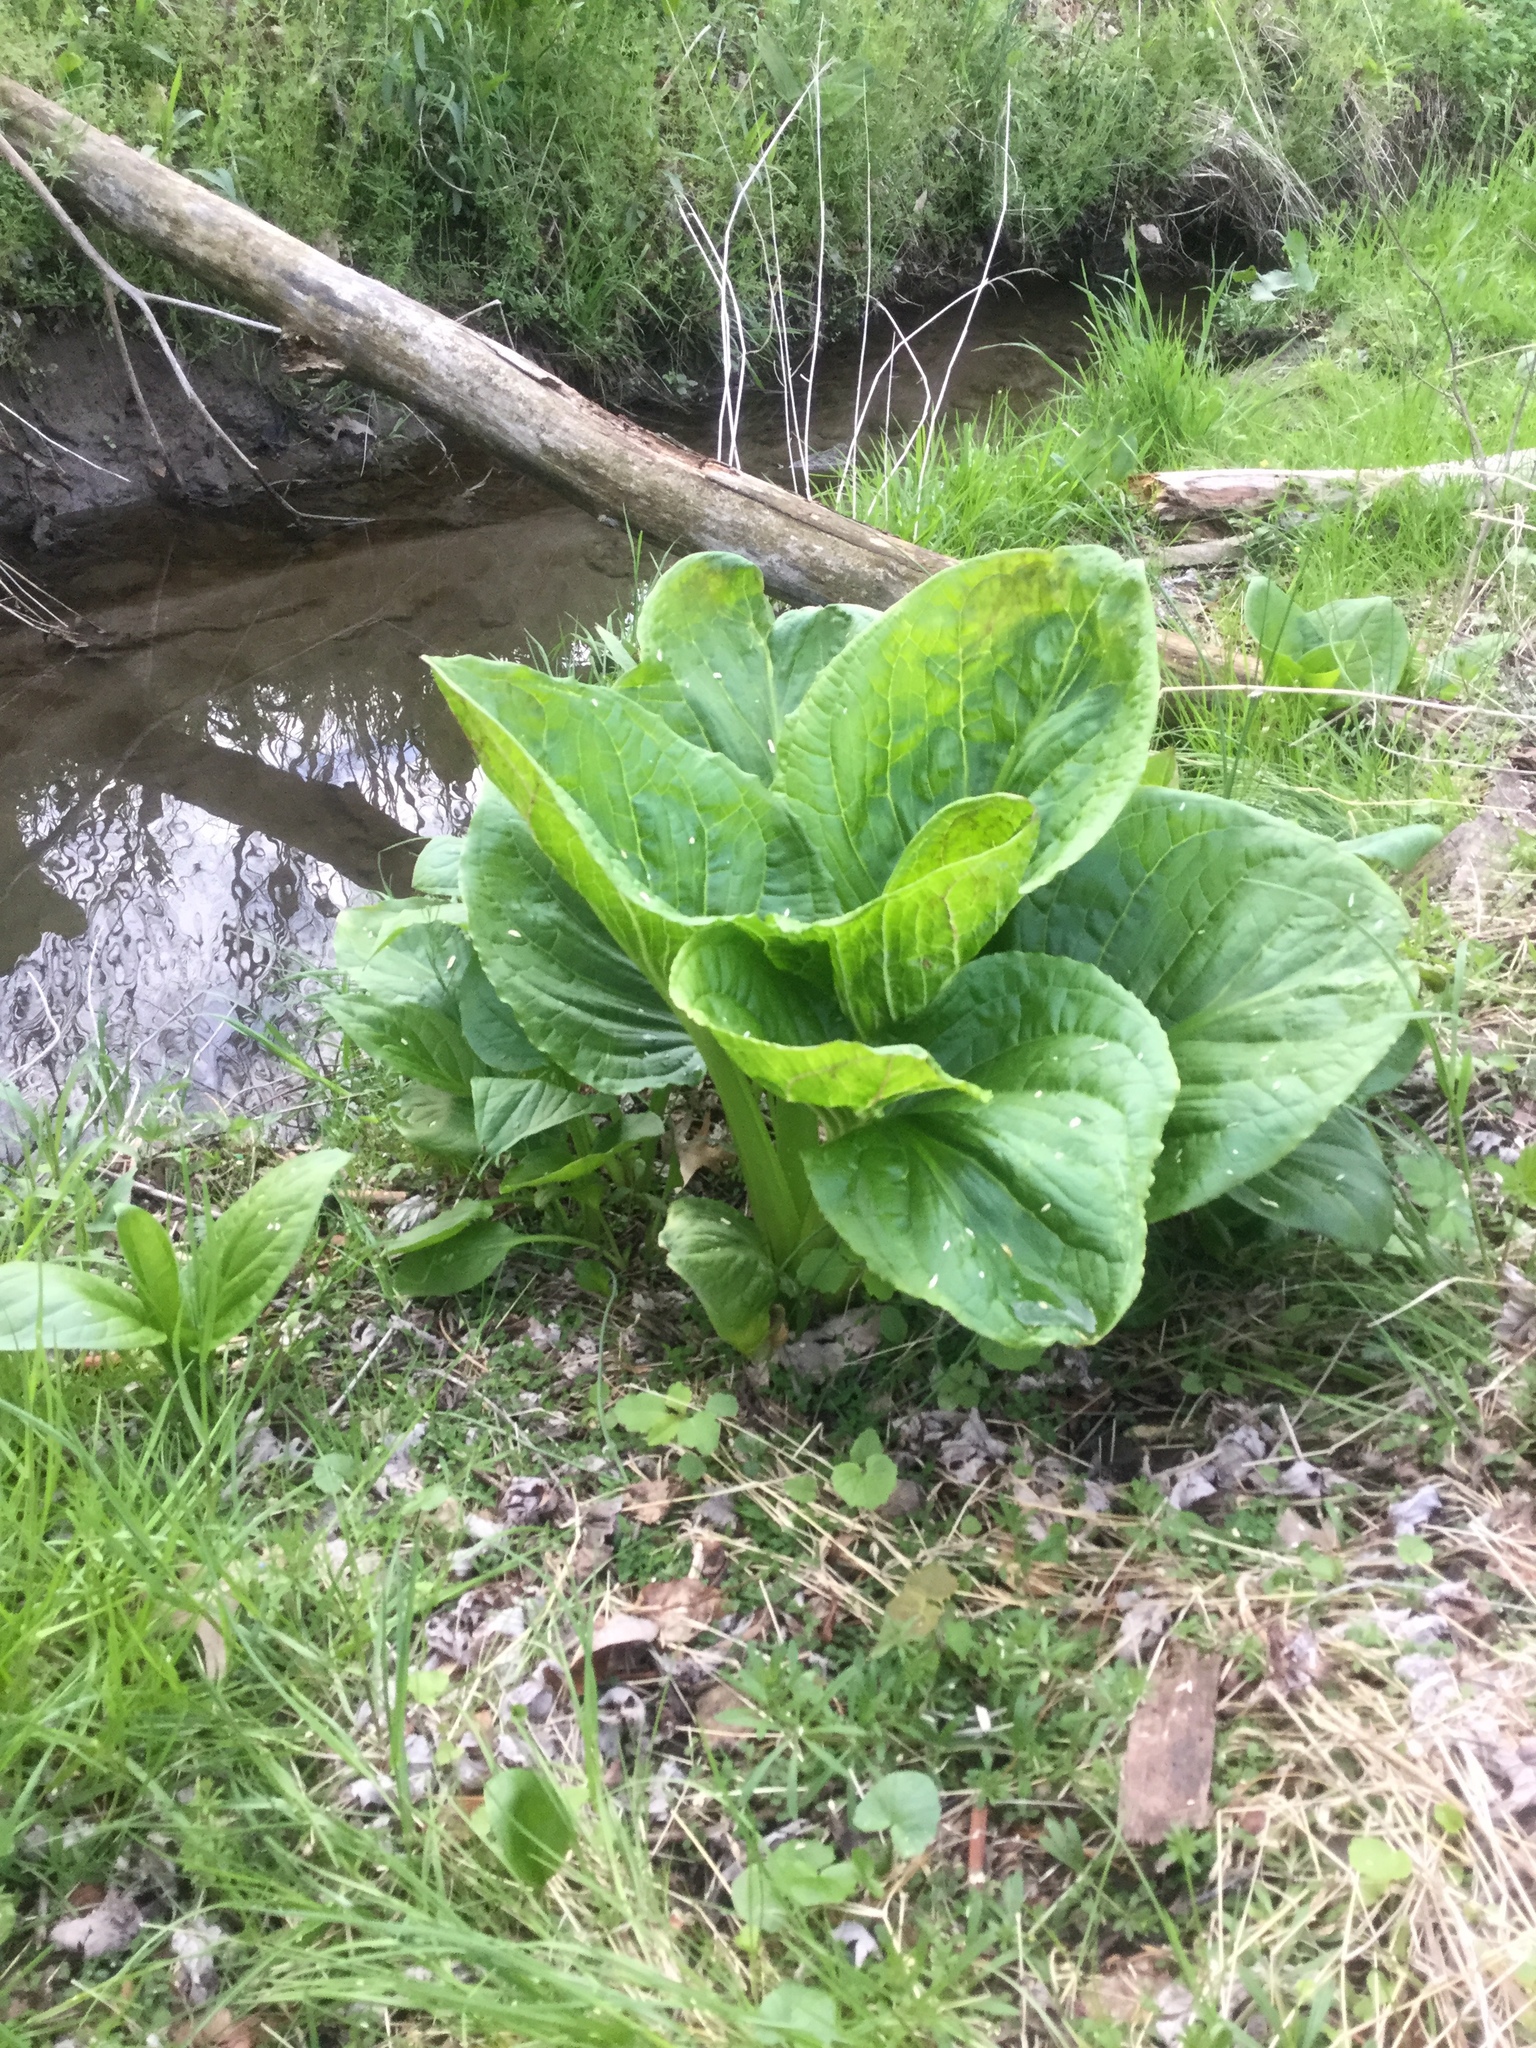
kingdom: Plantae
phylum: Tracheophyta
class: Liliopsida
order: Alismatales
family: Araceae
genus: Symplocarpus
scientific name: Symplocarpus foetidus
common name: Eastern skunk cabbage
